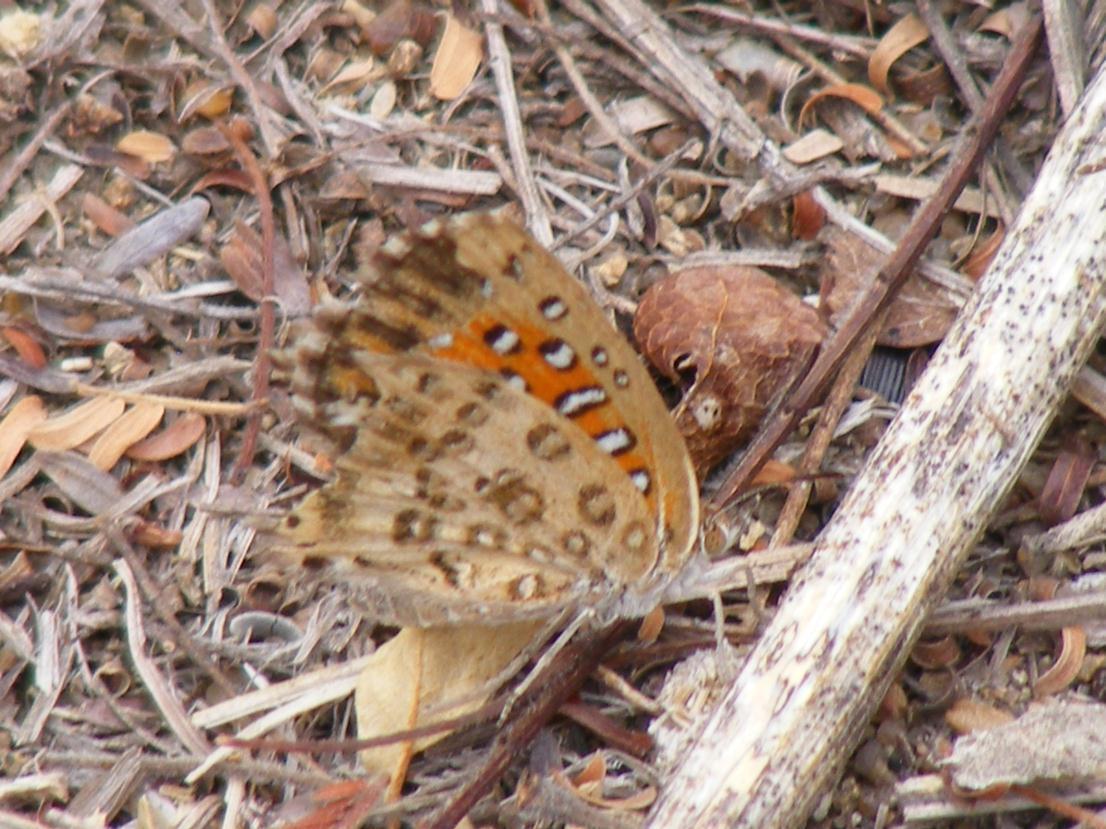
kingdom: Animalia
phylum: Arthropoda
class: Insecta
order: Lepidoptera
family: Lycaenidae
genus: Aloeides
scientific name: Aloeides taikosama
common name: Dusky copper
